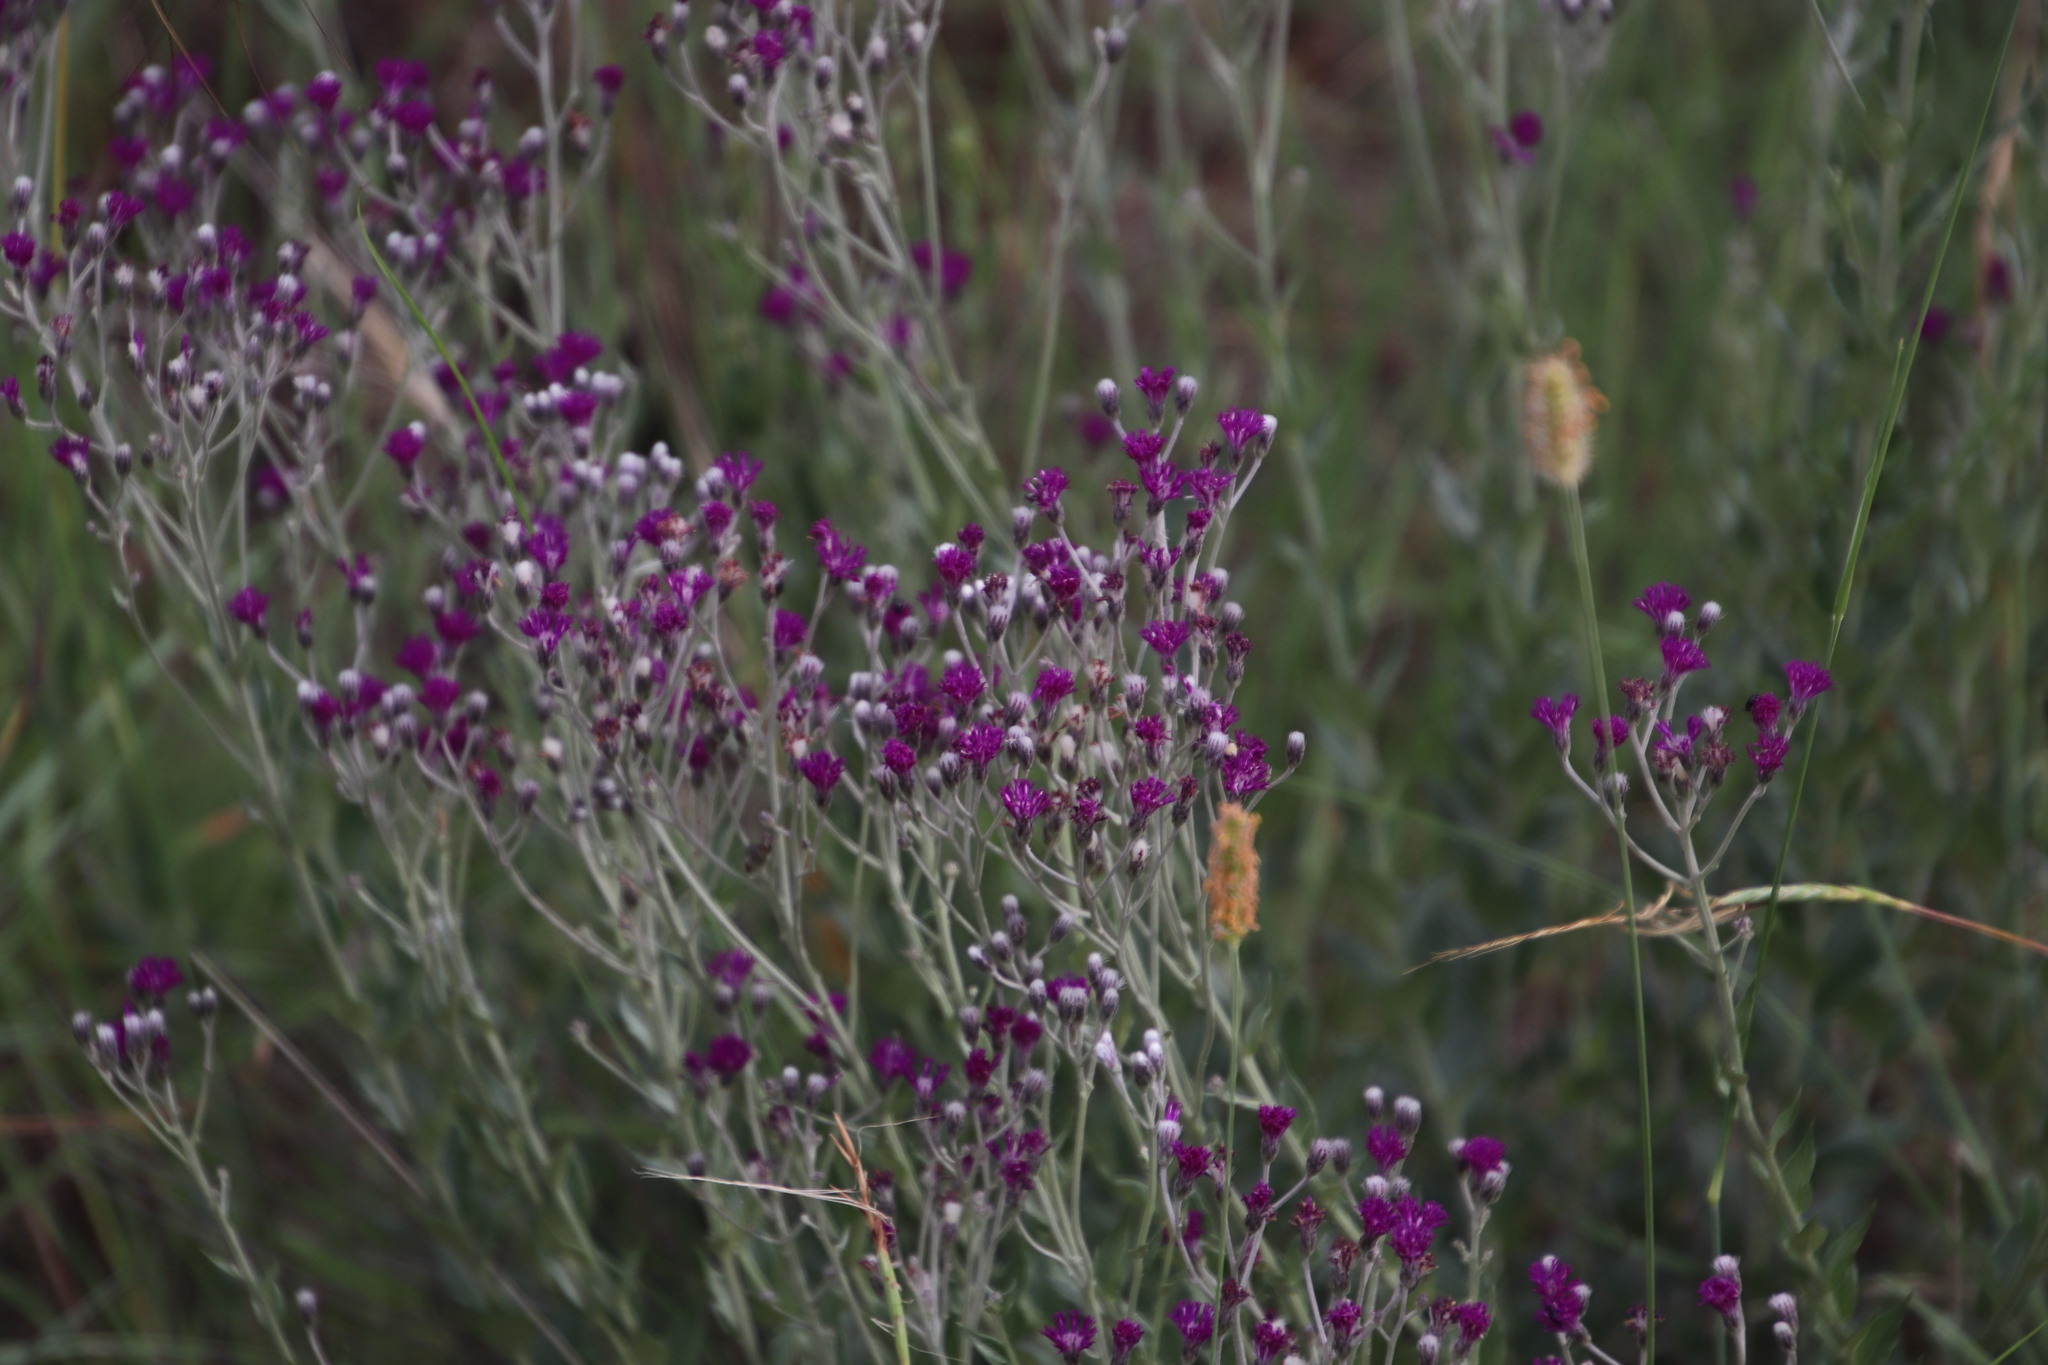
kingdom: Plantae
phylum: Tracheophyta
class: Magnoliopsida
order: Asterales
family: Asteraceae
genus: Hilliardiella
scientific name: Hilliardiella oligocephala
